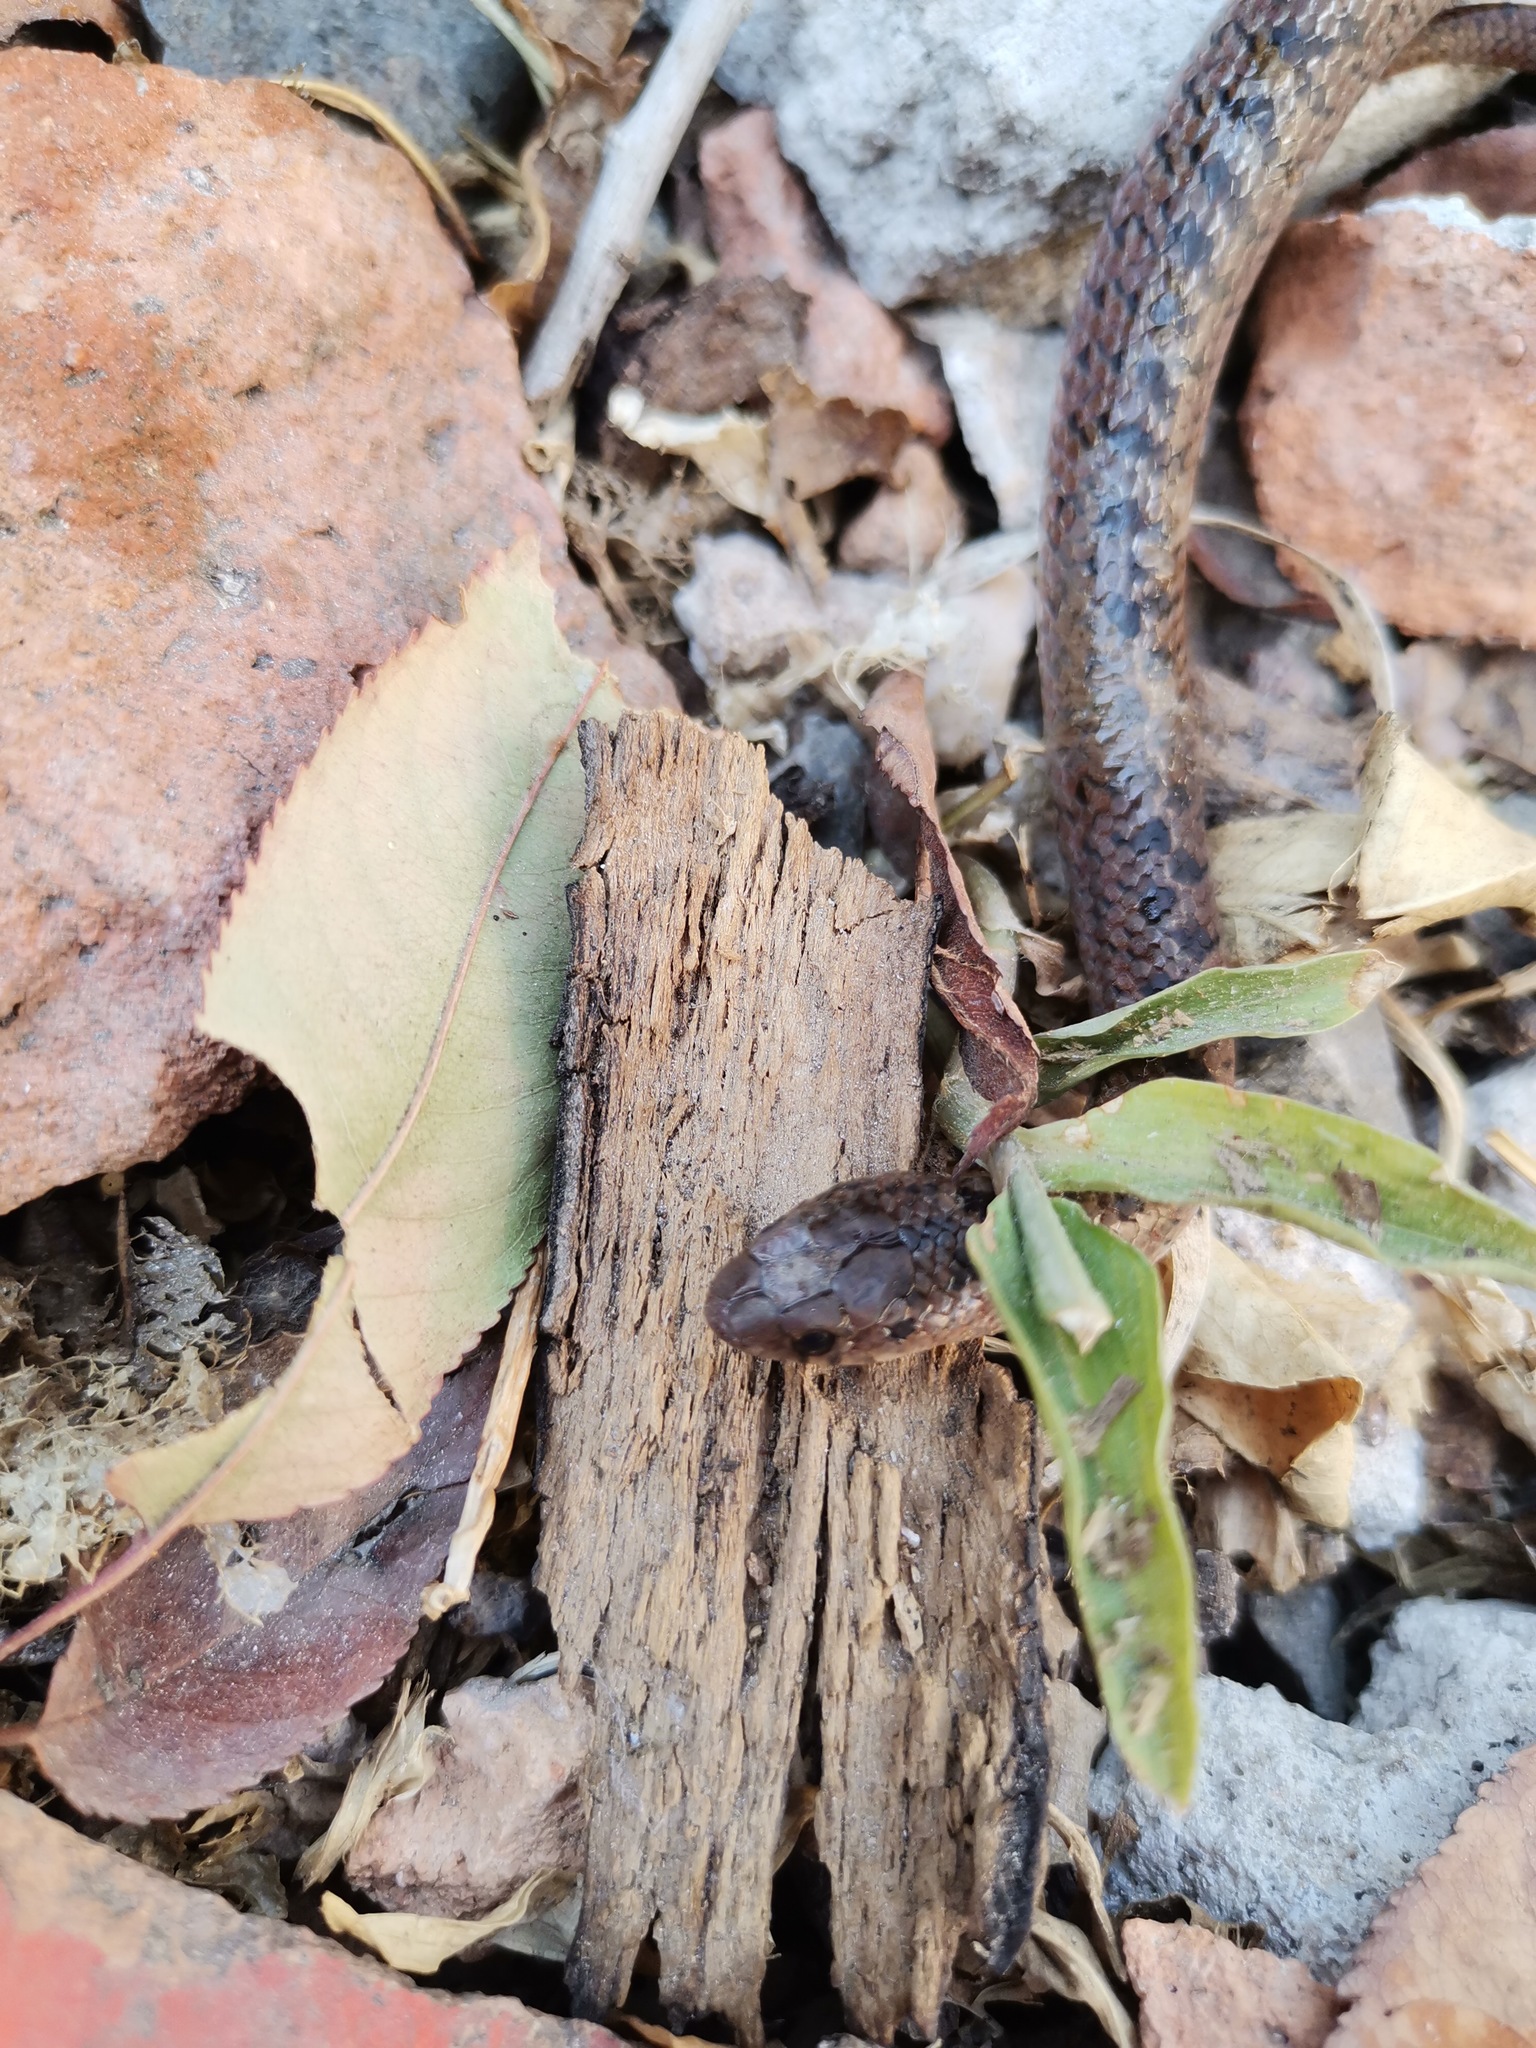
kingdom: Animalia
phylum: Chordata
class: Squamata
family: Colubridae
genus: Conopsis
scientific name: Conopsis nasus
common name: Largenose earth snake
